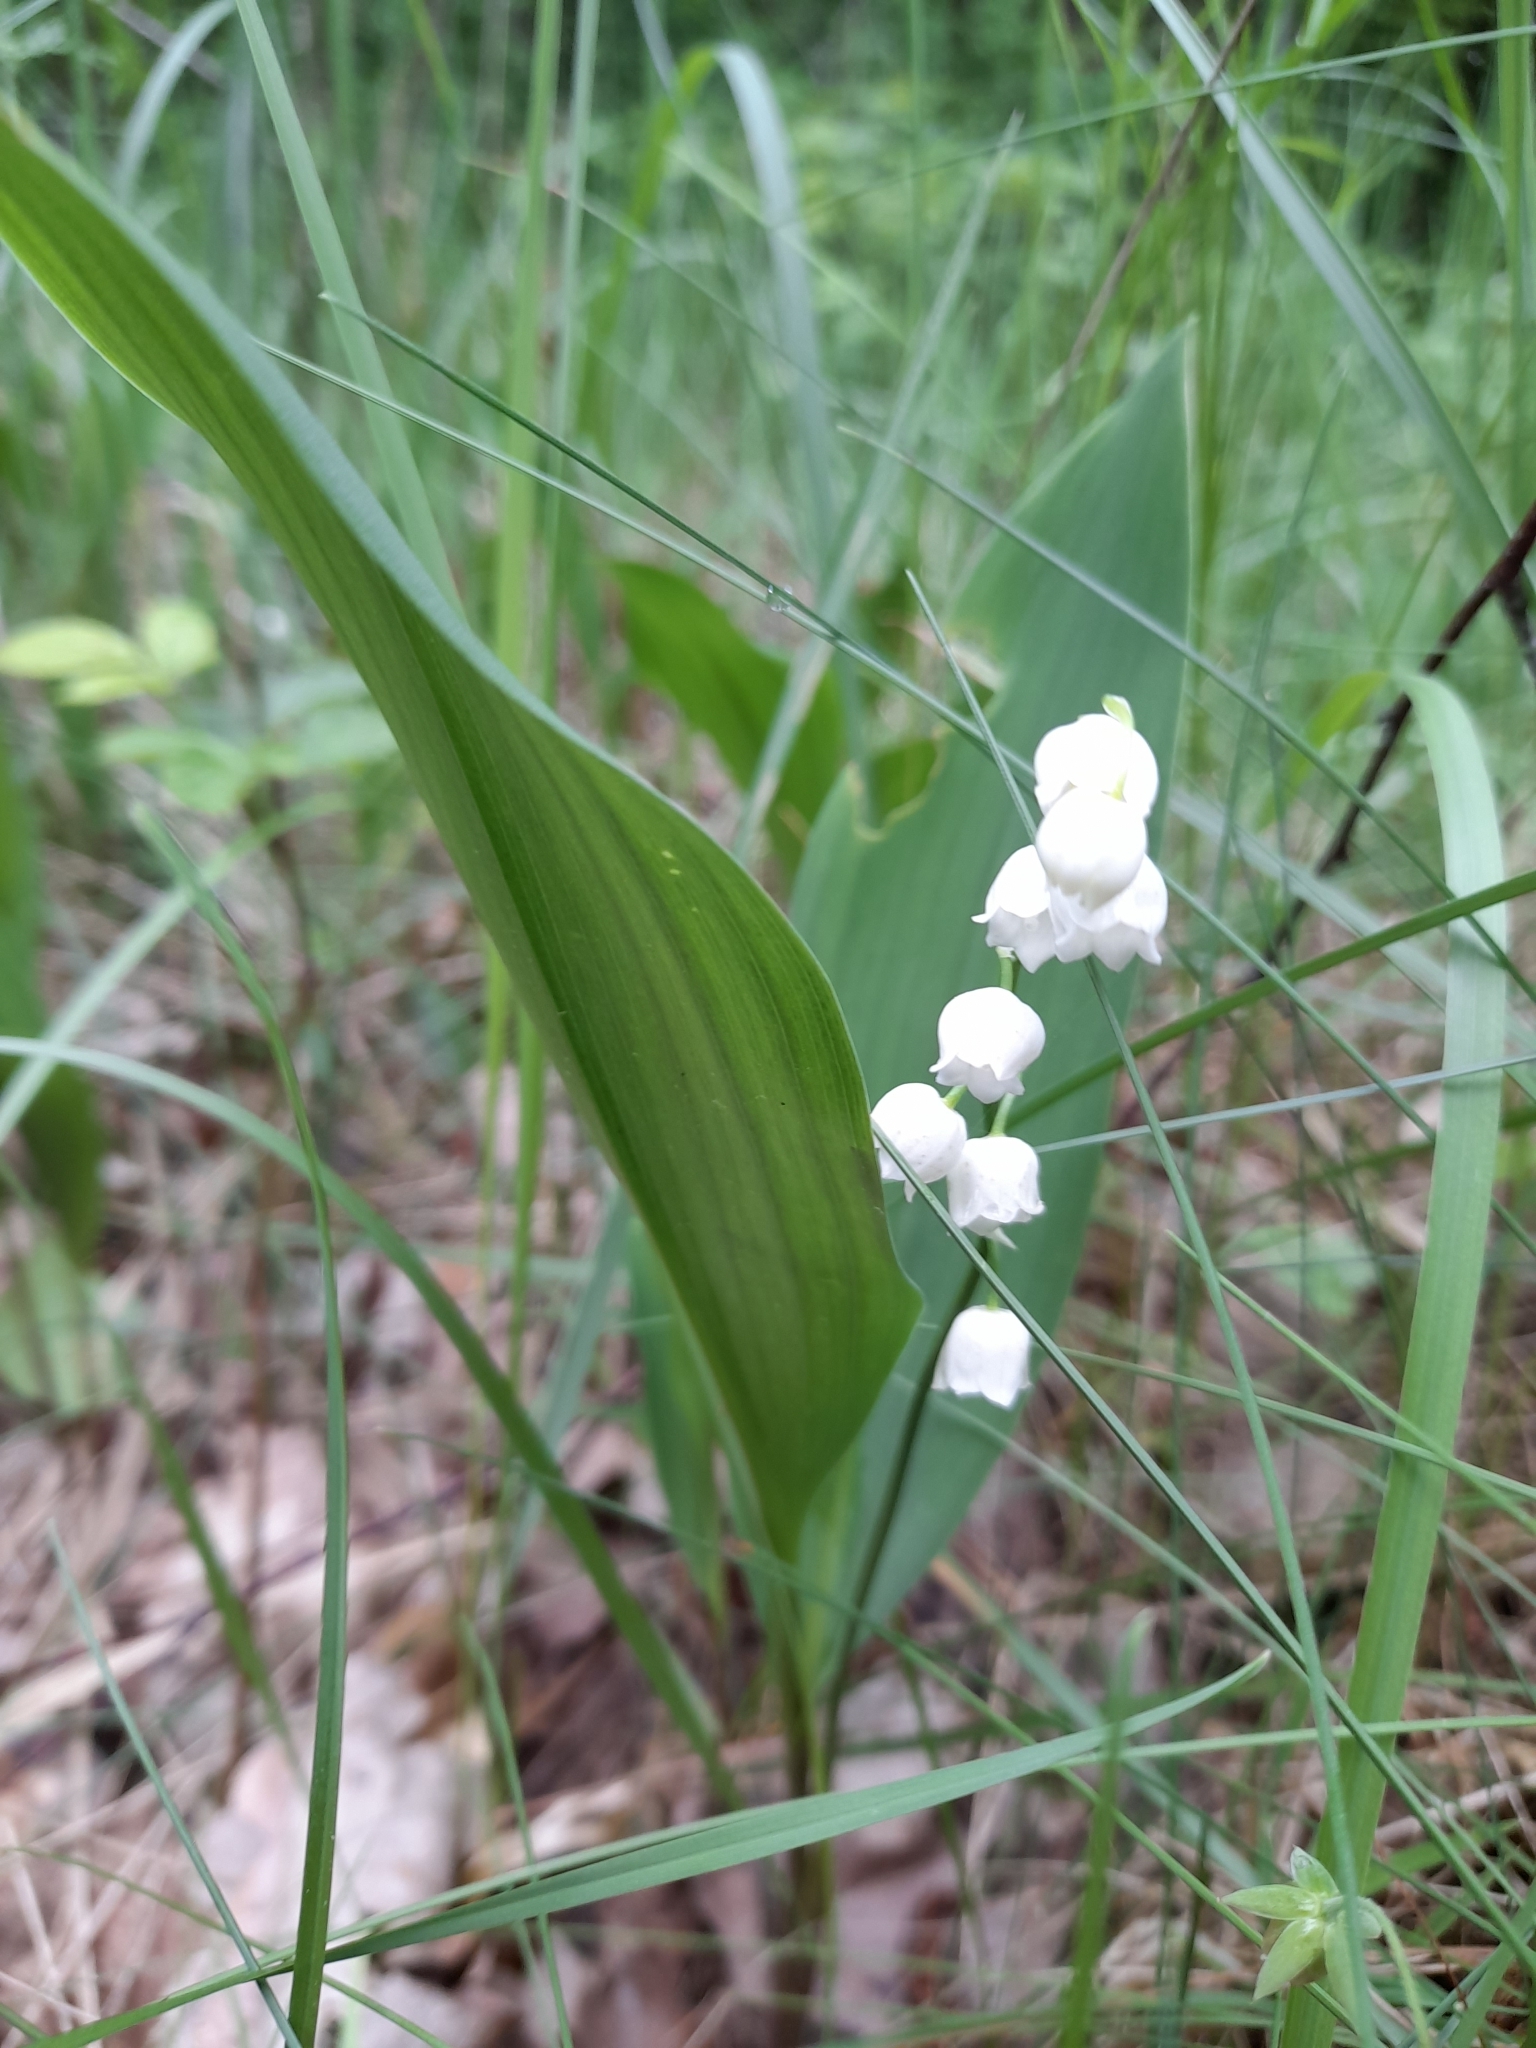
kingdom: Plantae
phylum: Tracheophyta
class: Liliopsida
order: Asparagales
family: Asparagaceae
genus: Convallaria
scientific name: Convallaria majalis
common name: Lily-of-the-valley
